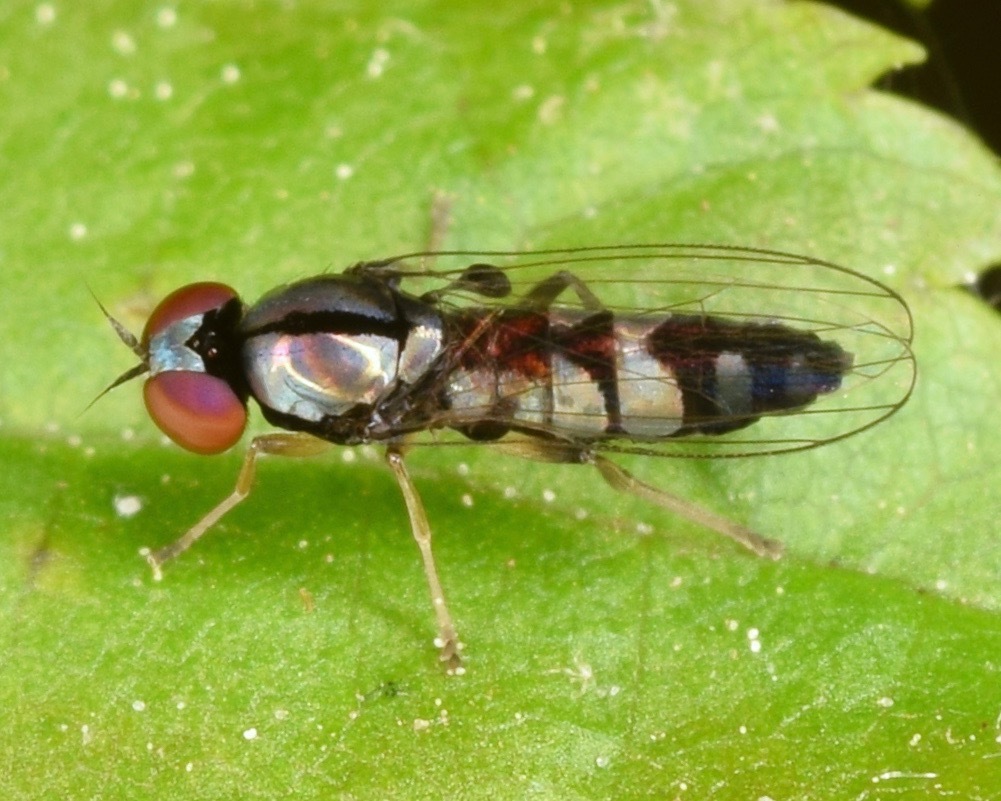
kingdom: Animalia
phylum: Arthropoda
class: Insecta
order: Diptera
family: Platypezidae
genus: Bertamyia
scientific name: Bertamyia notata
